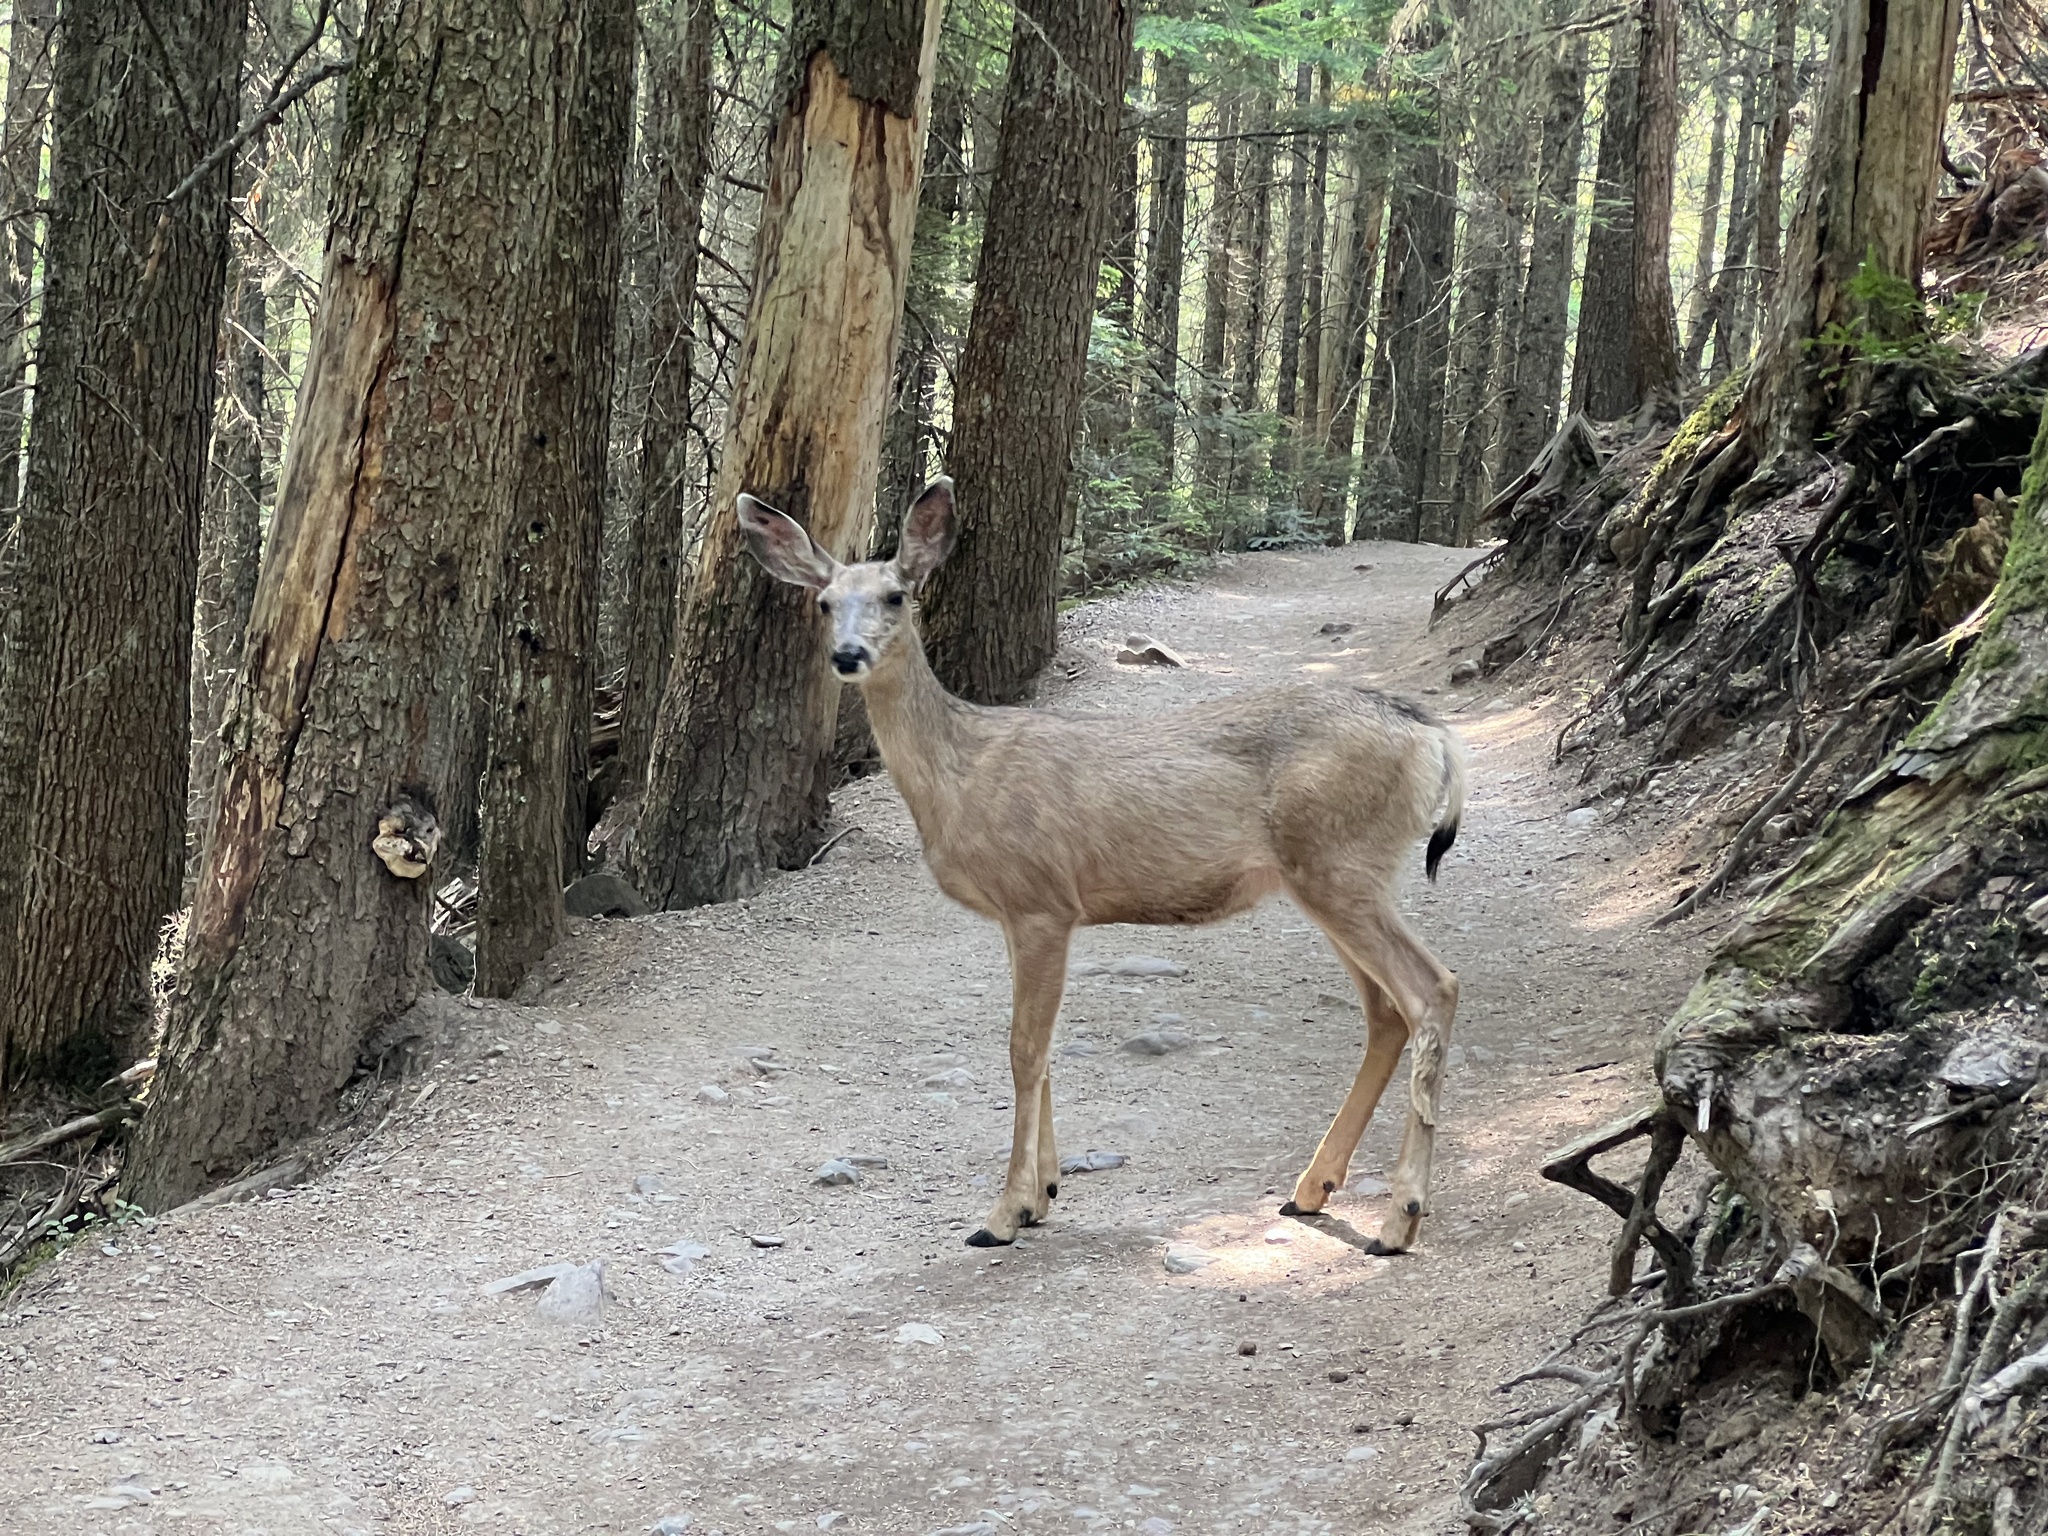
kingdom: Animalia
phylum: Chordata
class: Mammalia
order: Artiodactyla
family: Cervidae
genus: Odocoileus
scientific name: Odocoileus hemionus
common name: Mule deer
